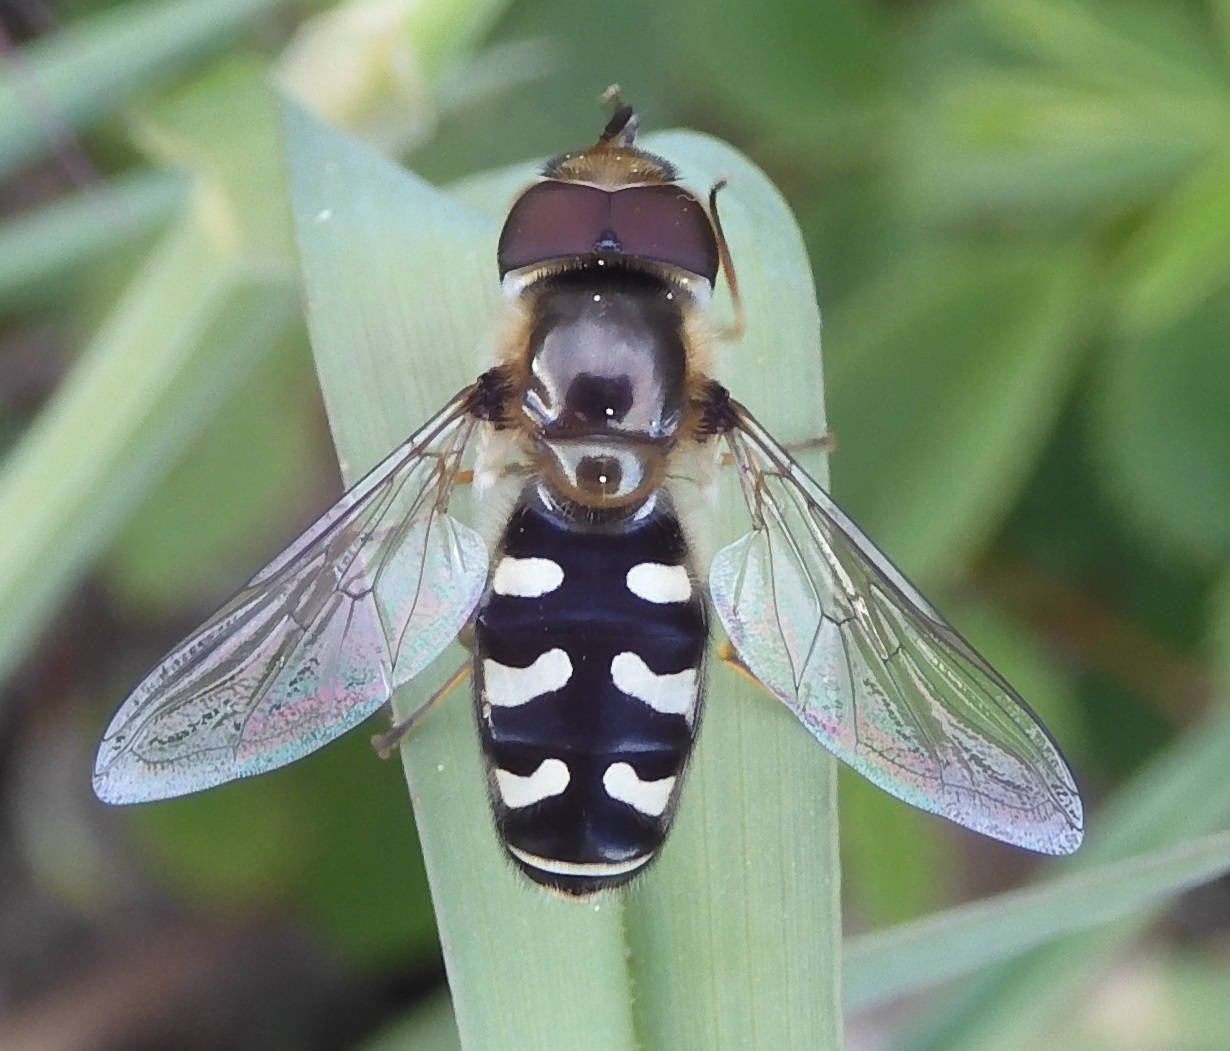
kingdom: Animalia
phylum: Arthropoda
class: Insecta
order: Diptera
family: Syrphidae
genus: Scaeva
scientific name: Scaeva pyrastri
